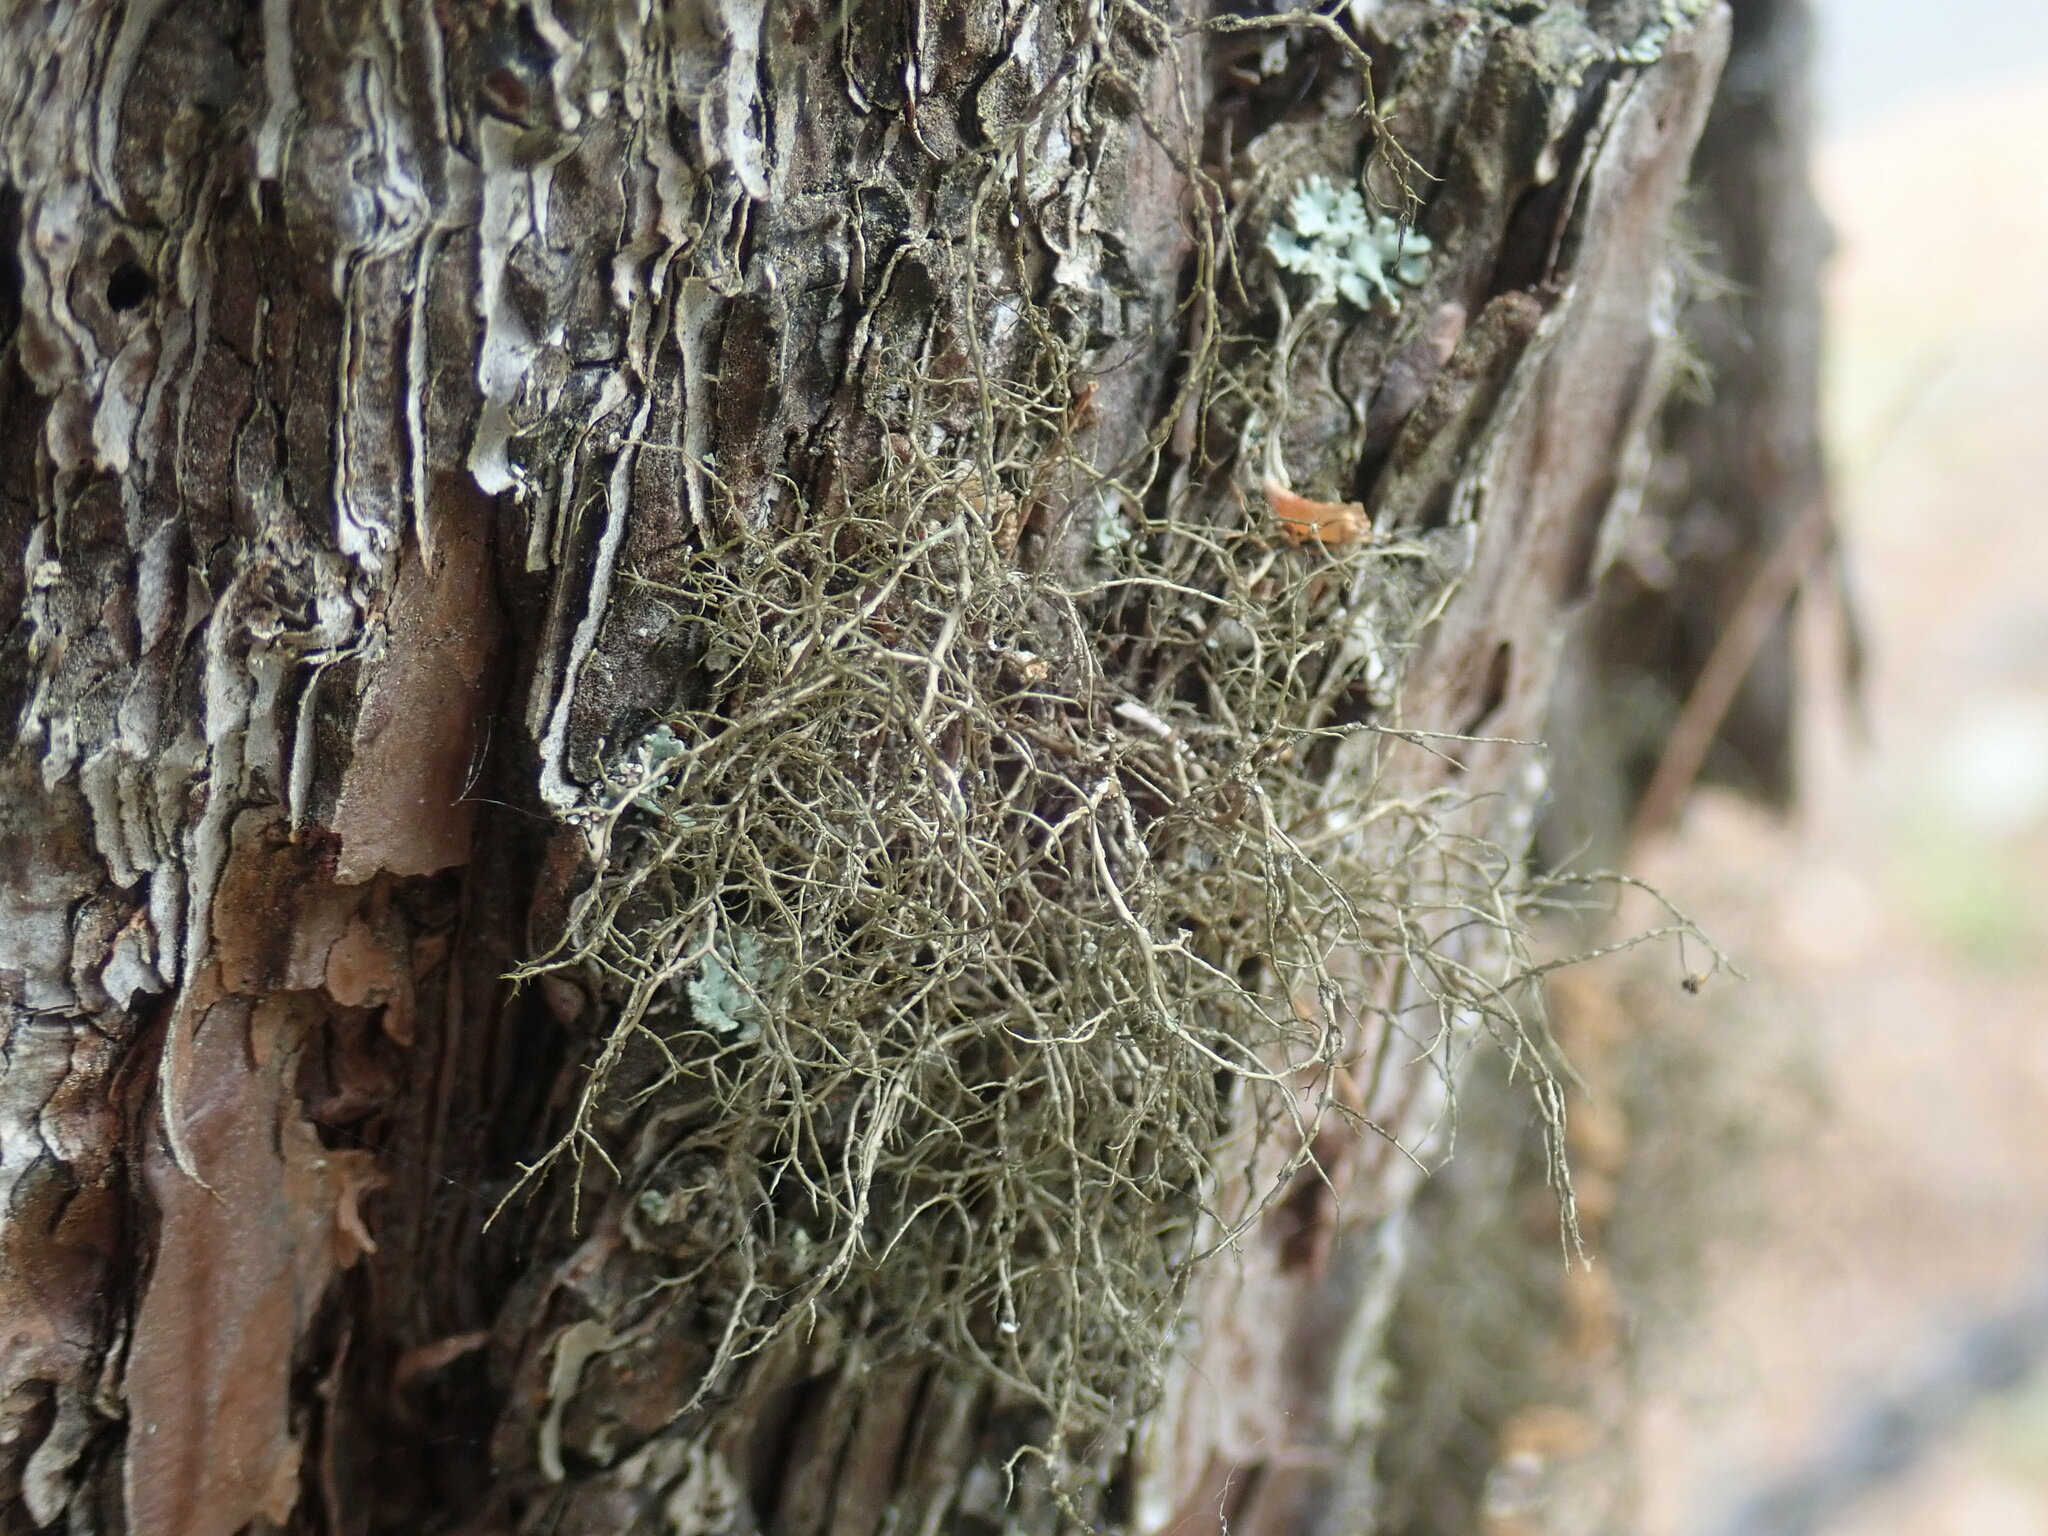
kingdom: Fungi
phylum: Ascomycota
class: Lecanoromycetes
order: Lecanorales
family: Parmeliaceae
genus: Bryoria
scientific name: Bryoria furcellata
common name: Forked hair-lichen
